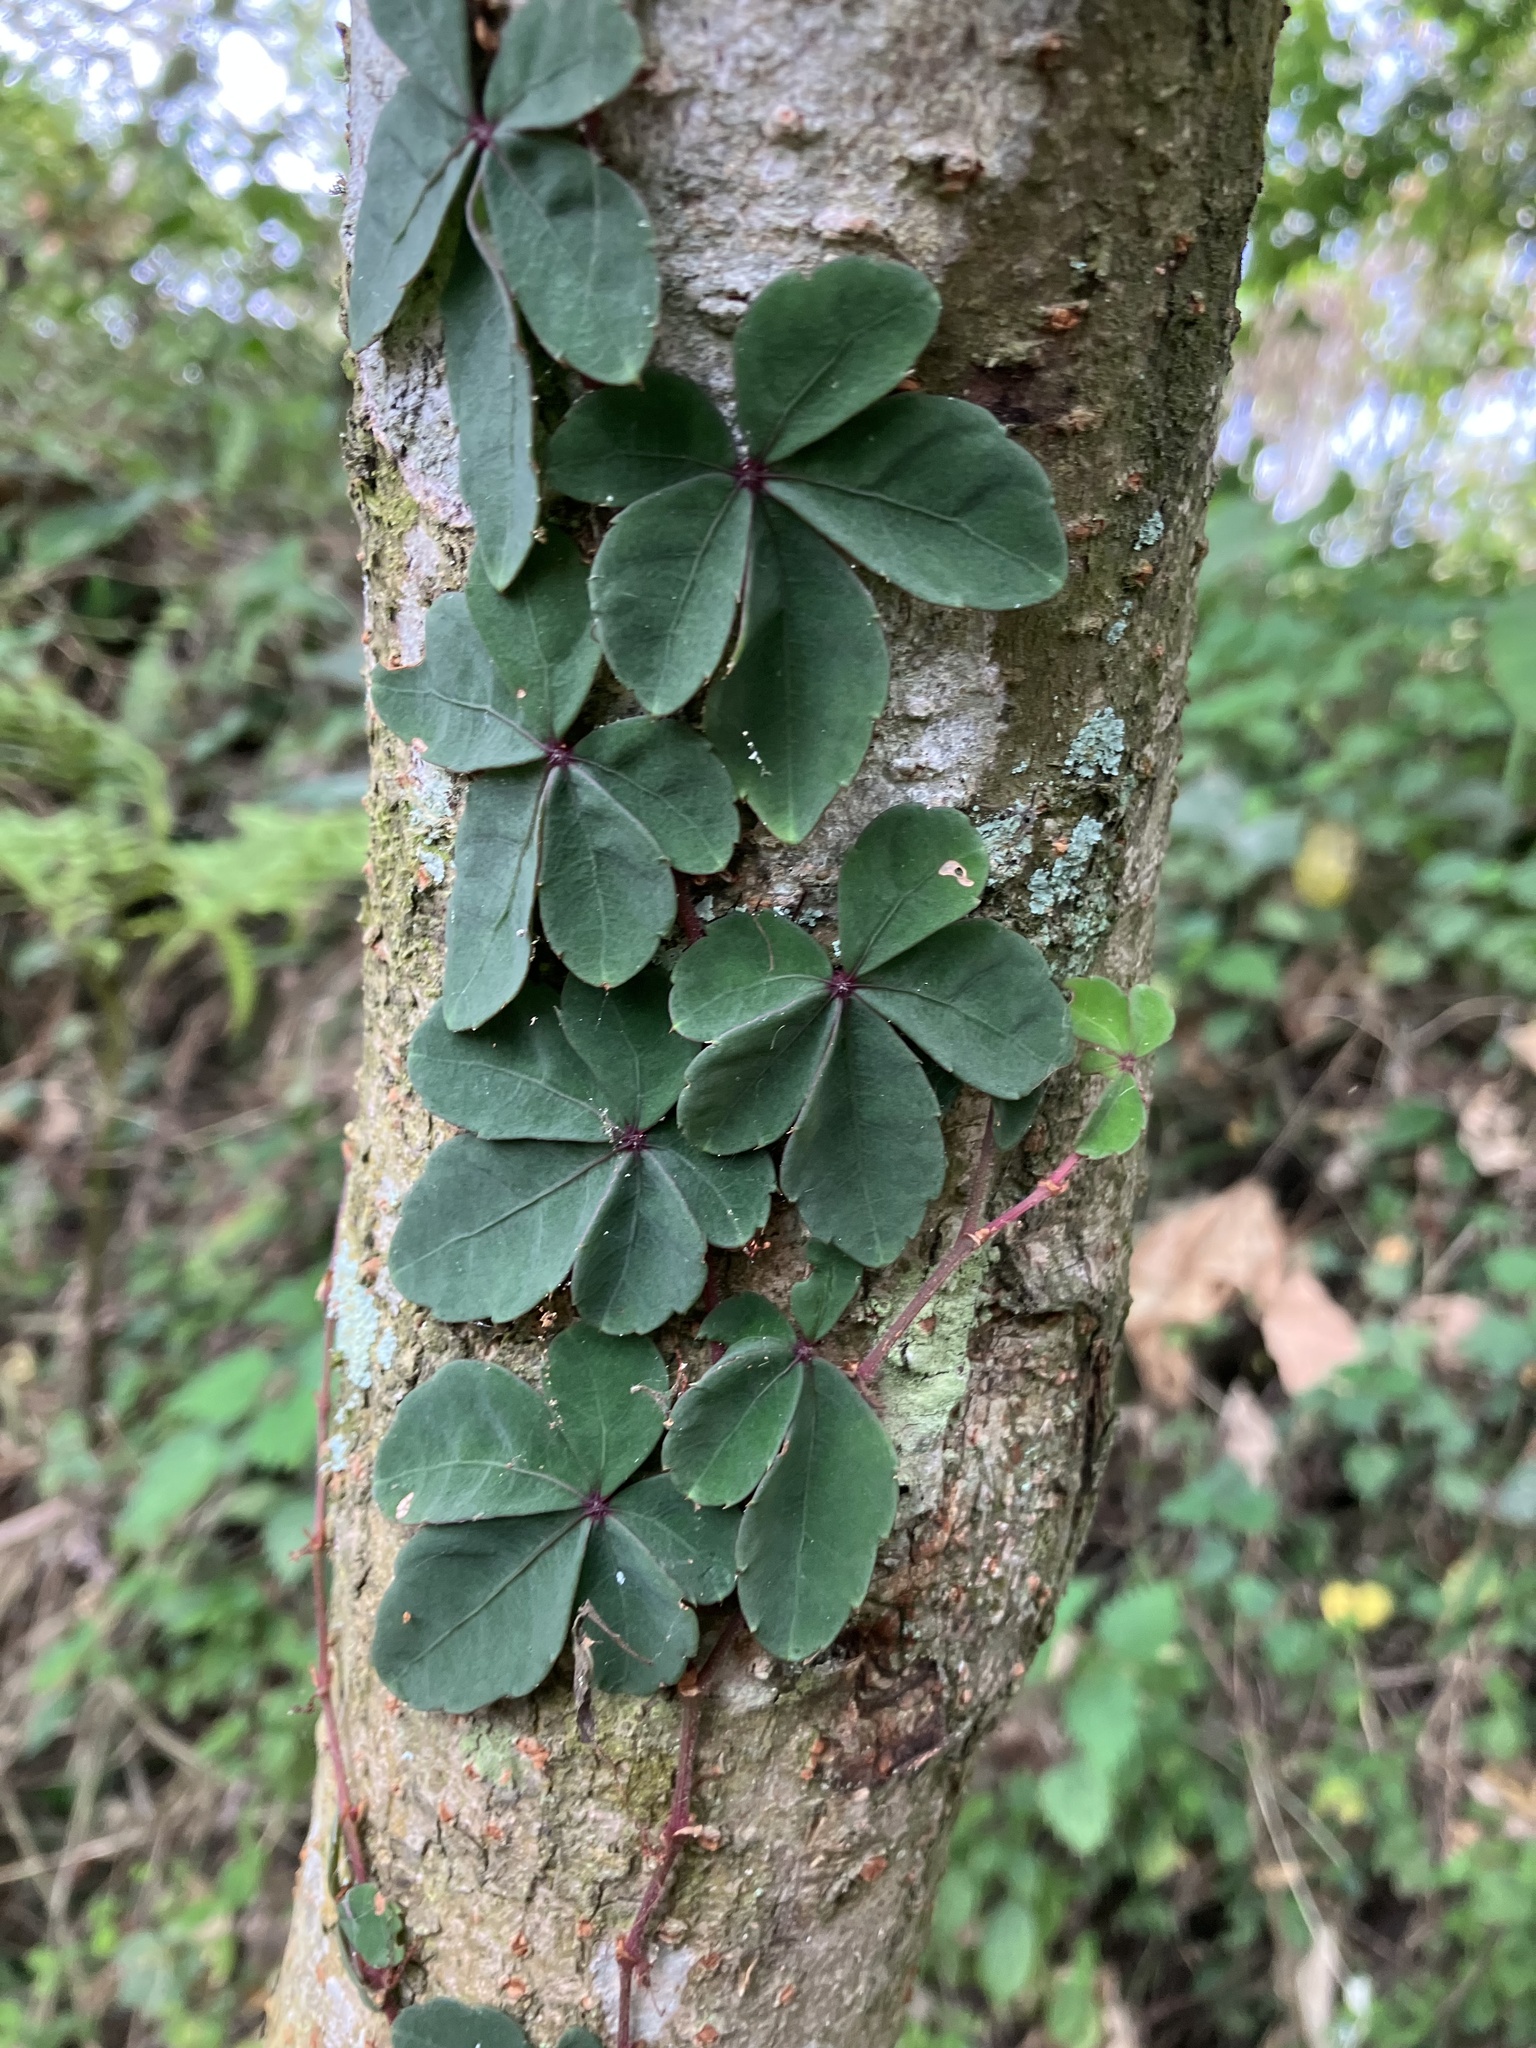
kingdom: Plantae
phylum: Tracheophyta
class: Magnoliopsida
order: Vitales
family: Vitaceae
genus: Tetrastigma
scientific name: Tetrastigma obtectum
